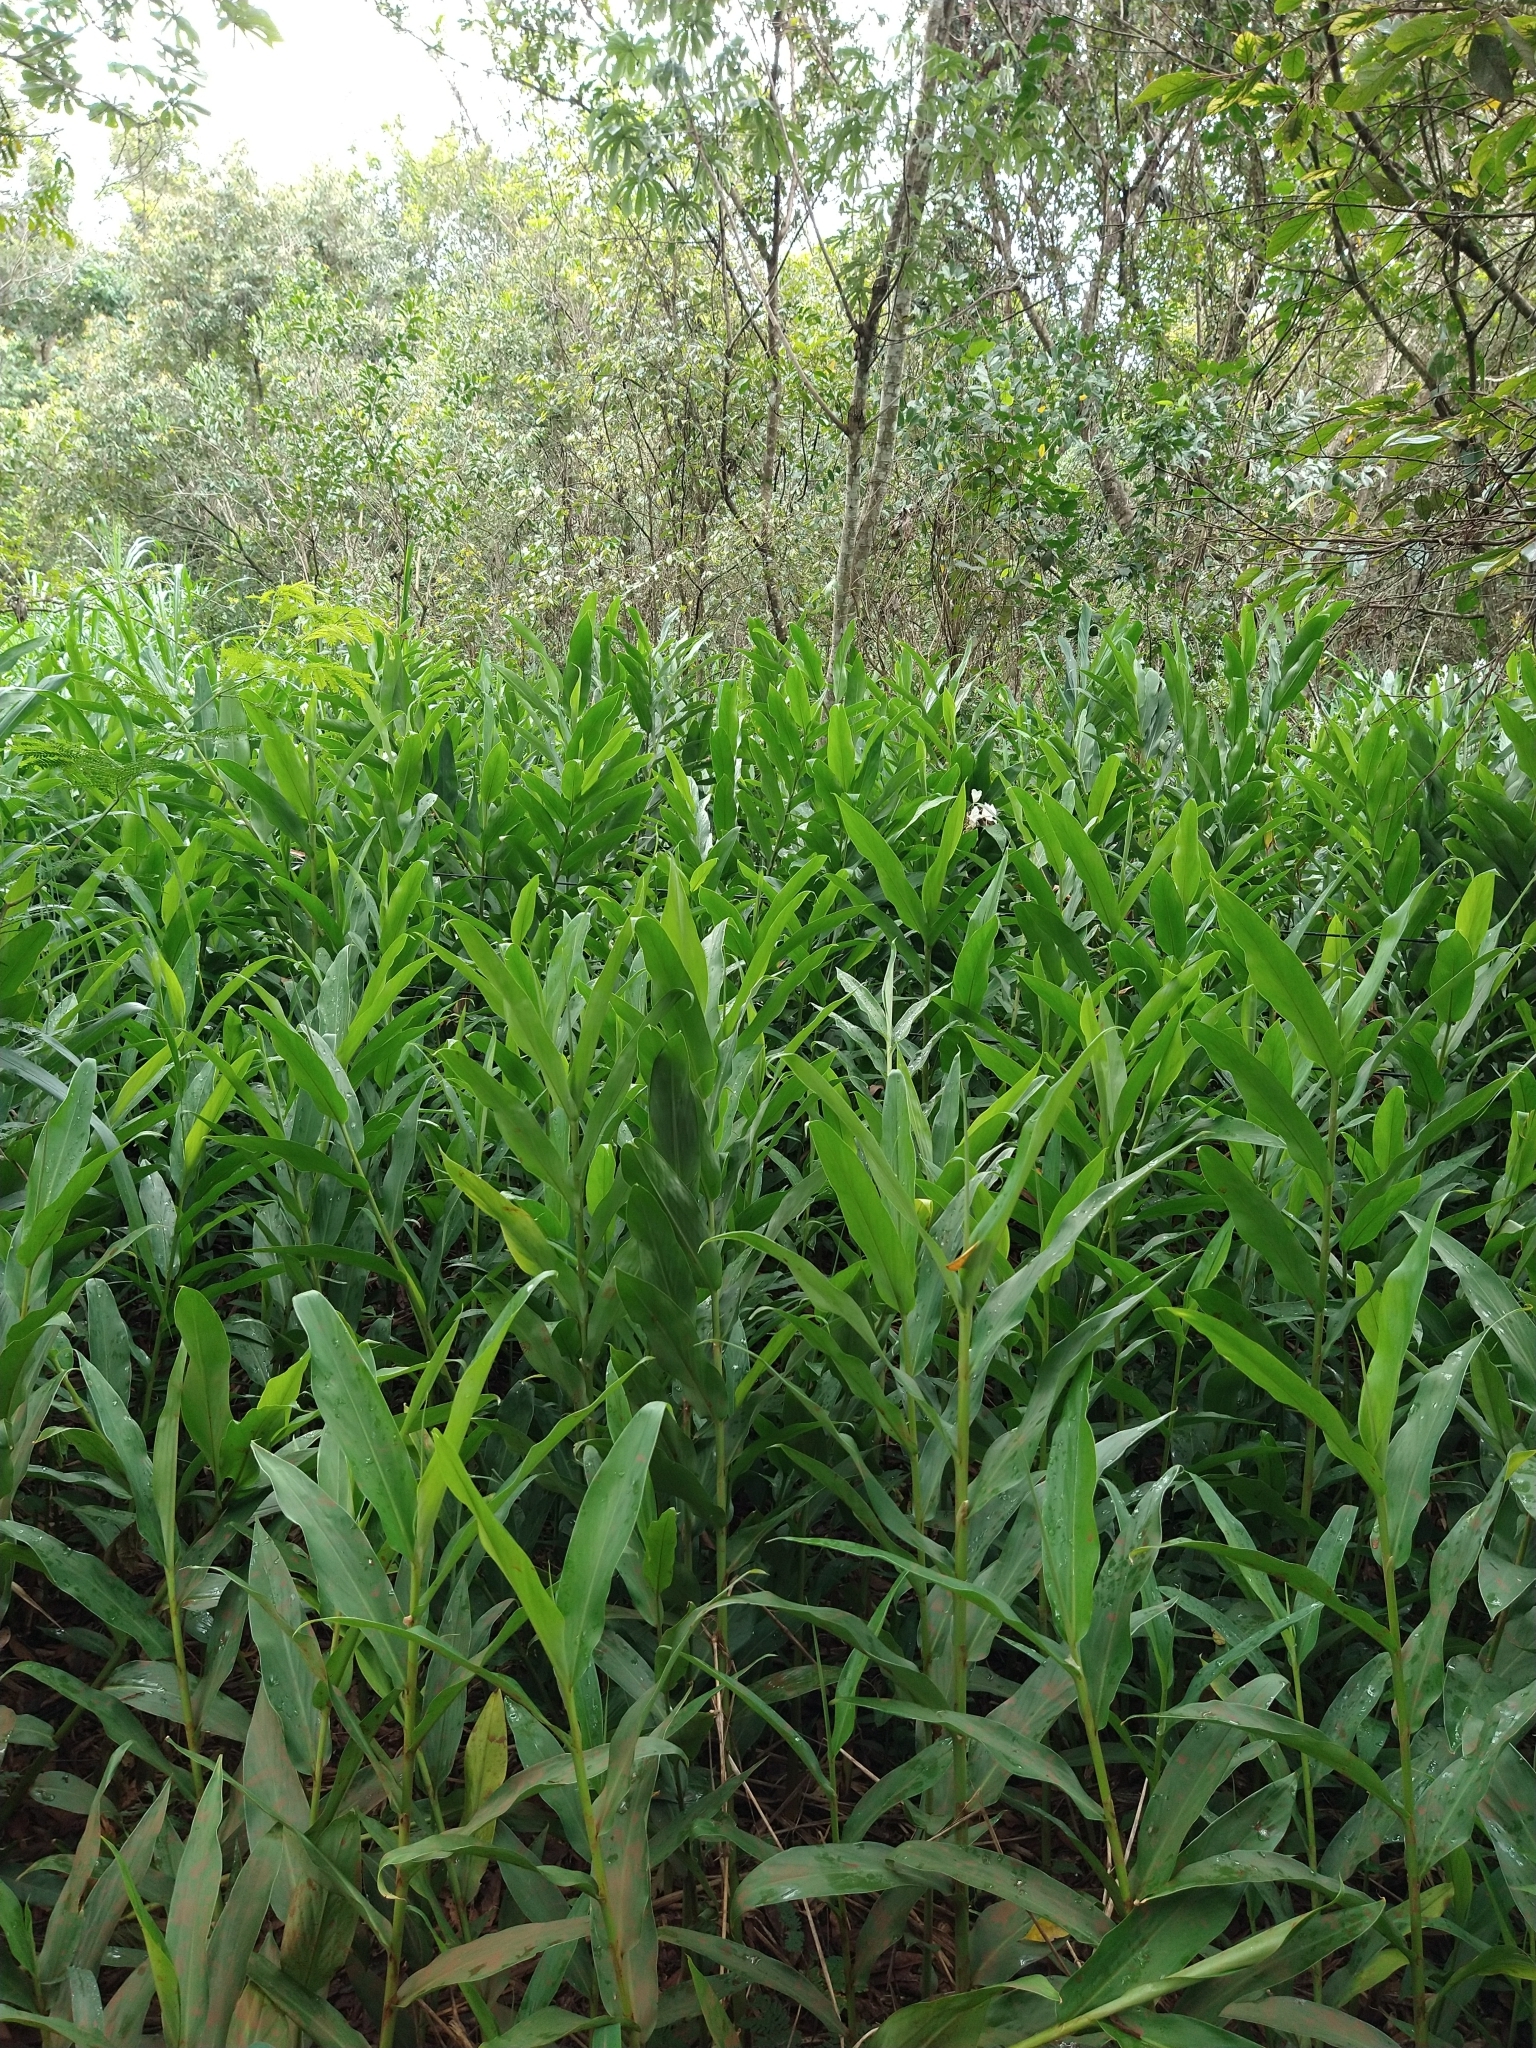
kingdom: Plantae
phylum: Tracheophyta
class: Liliopsida
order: Zingiberales
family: Zingiberaceae
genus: Hedychium
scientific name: Hedychium coronarium
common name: White garland-lily
